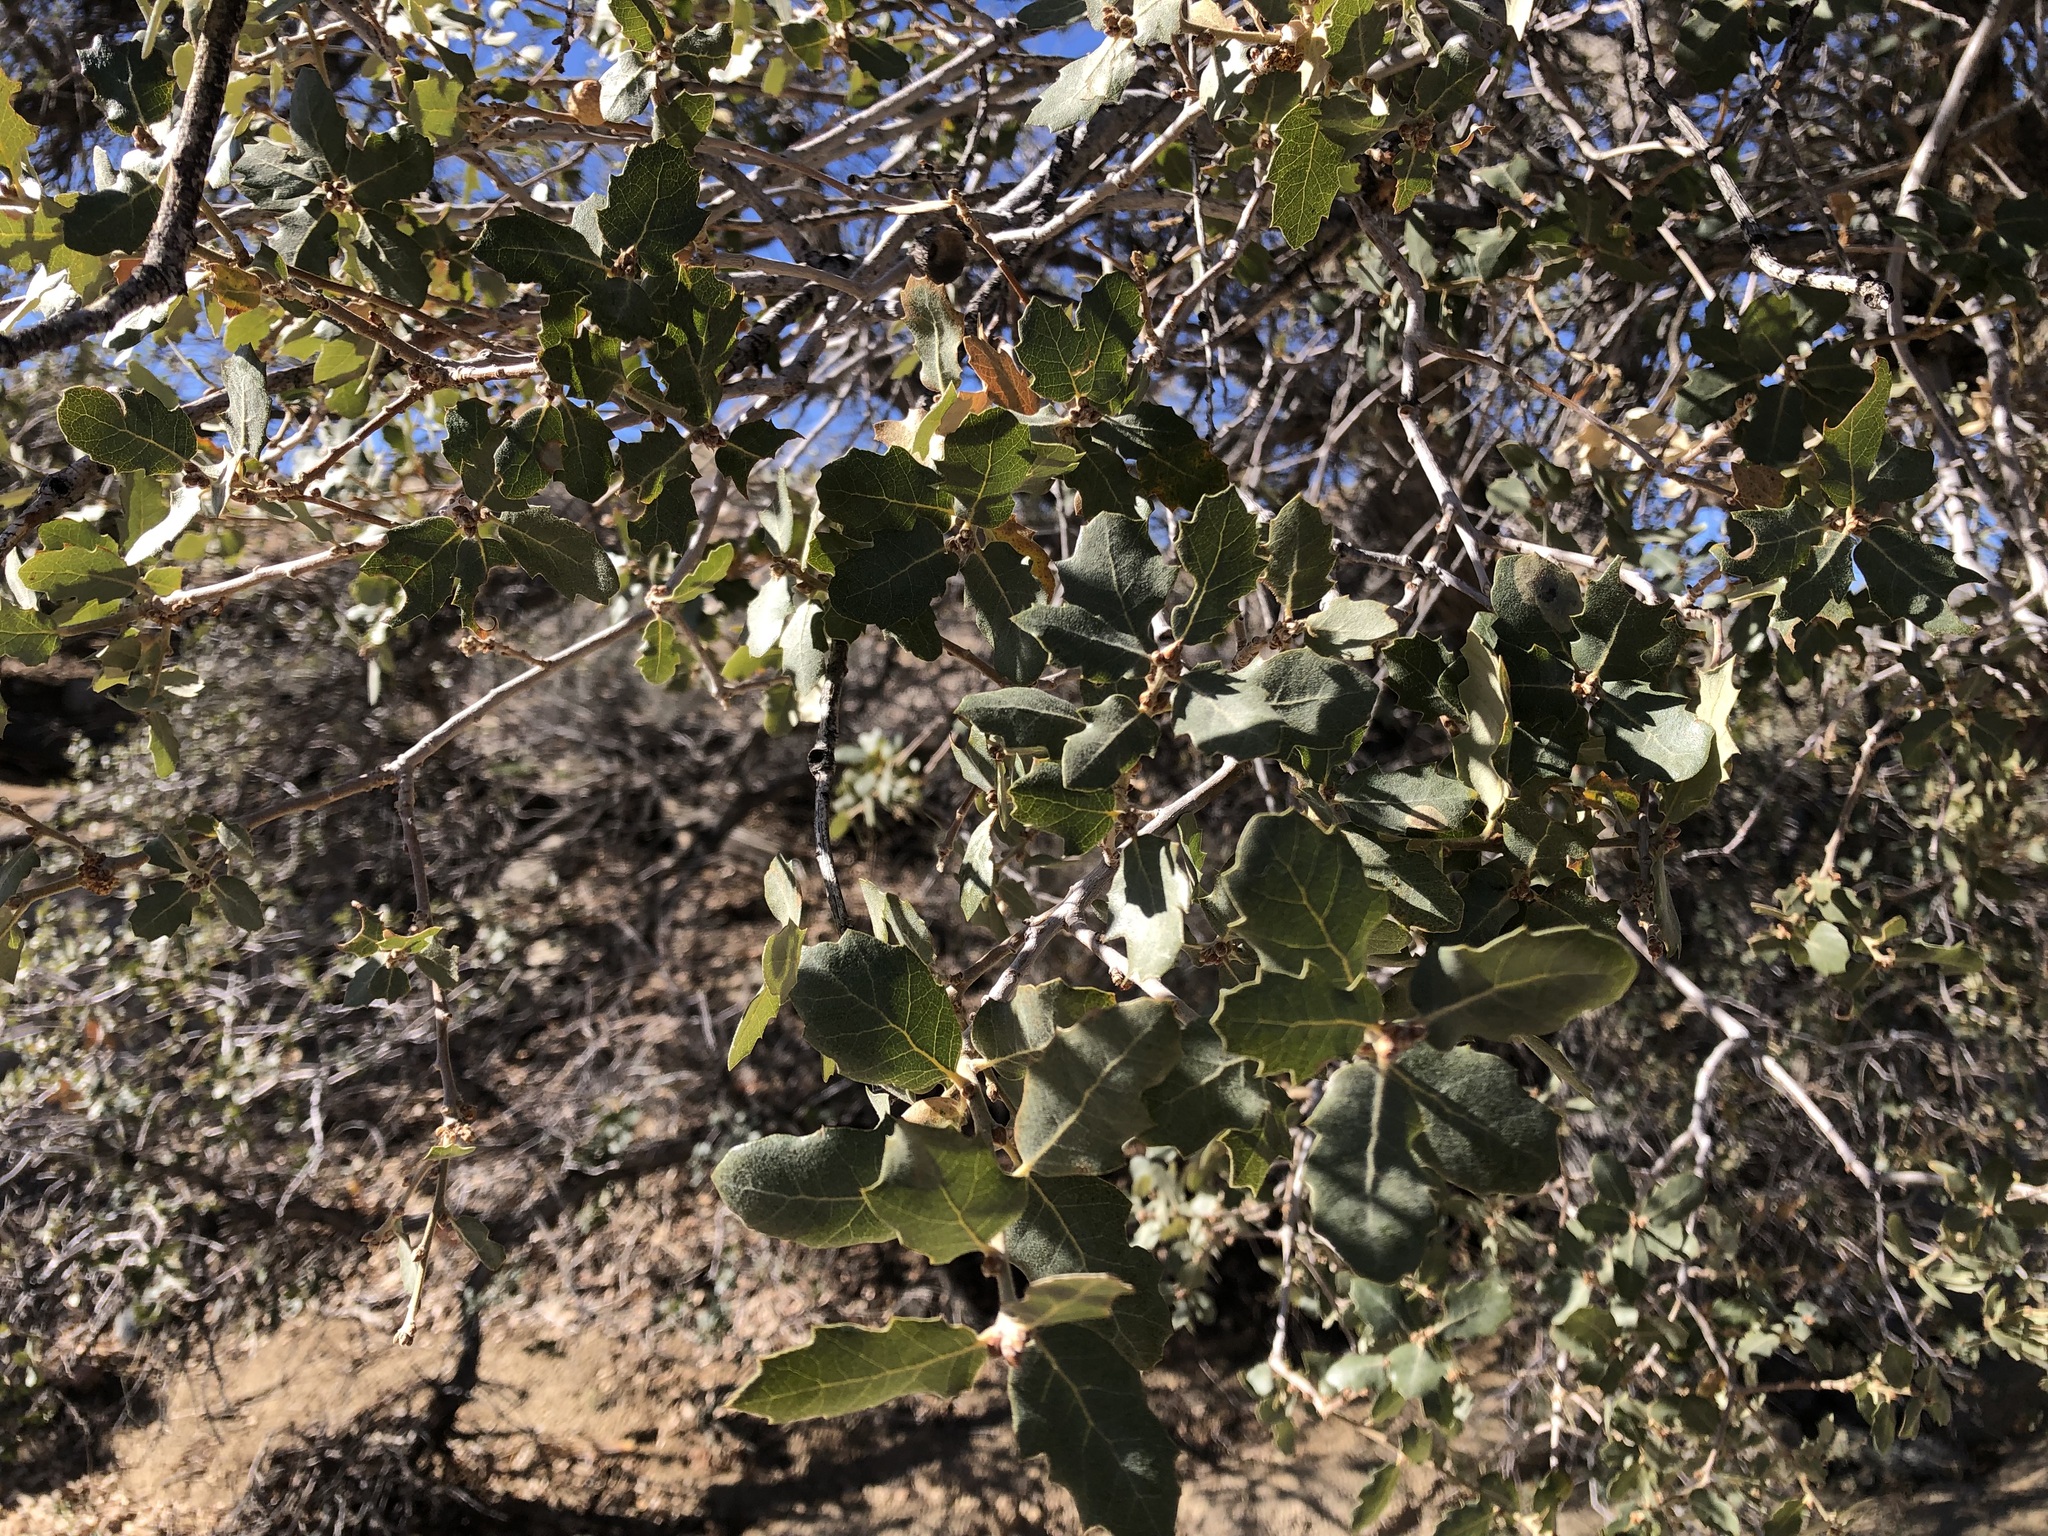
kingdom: Plantae
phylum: Tracheophyta
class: Magnoliopsida
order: Fagales
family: Fagaceae
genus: Quercus
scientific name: Quercus cornelius-mulleri
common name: Muller oak
